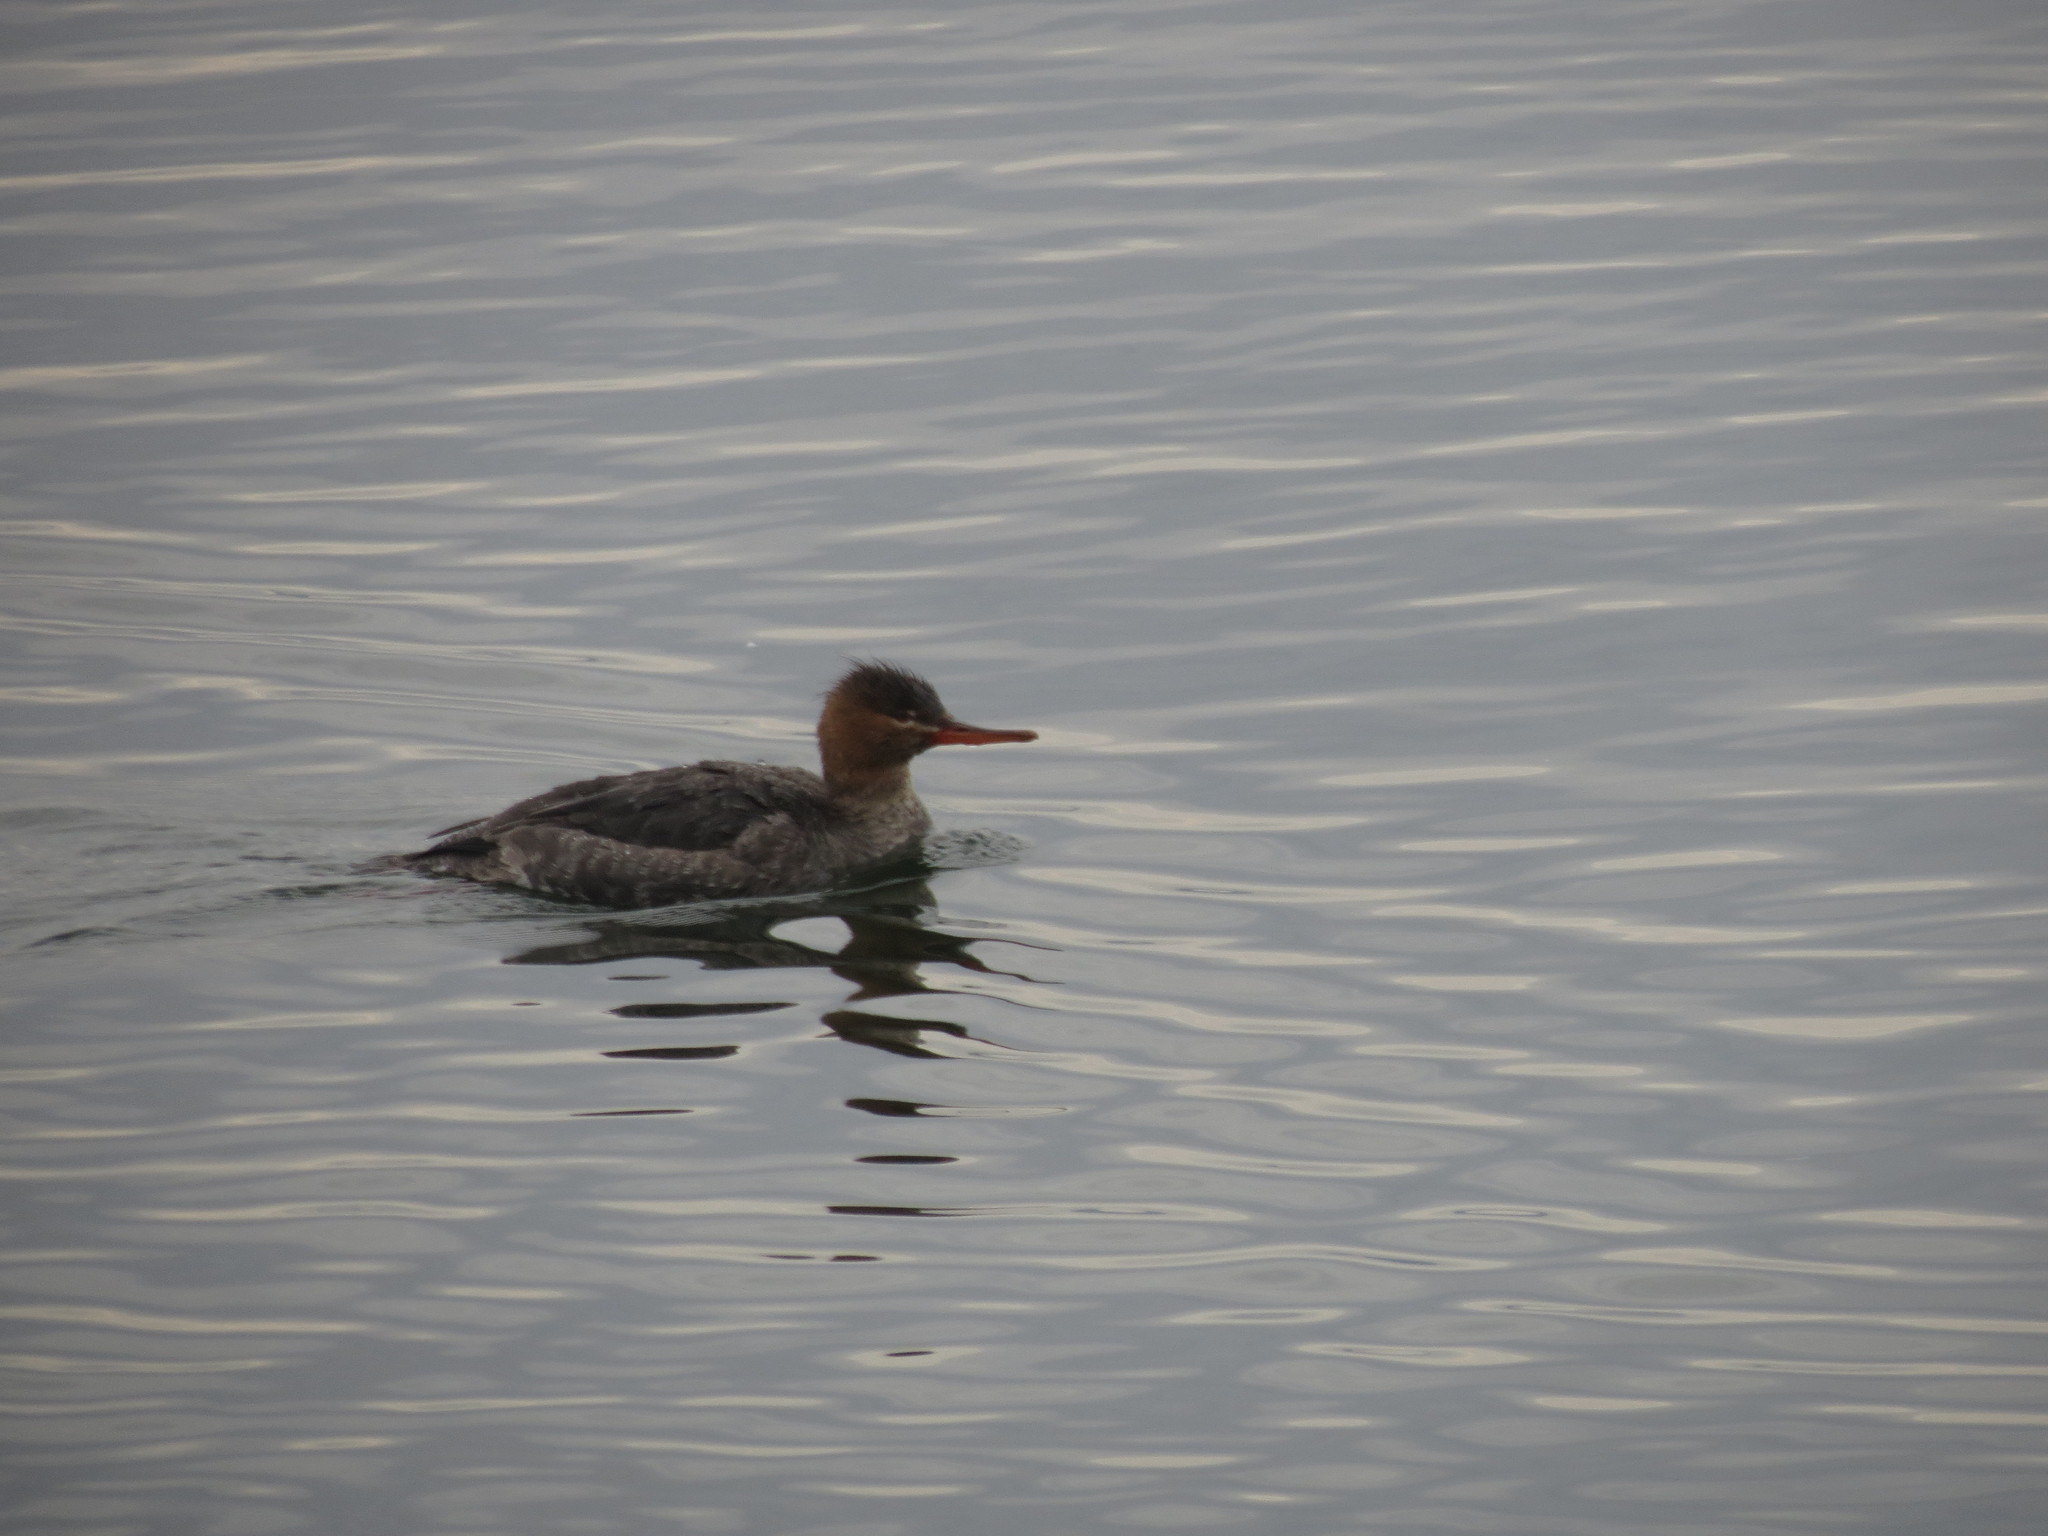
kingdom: Animalia
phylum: Chordata
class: Aves
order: Anseriformes
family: Anatidae
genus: Mergus
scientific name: Mergus serrator
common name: Red-breasted merganser
